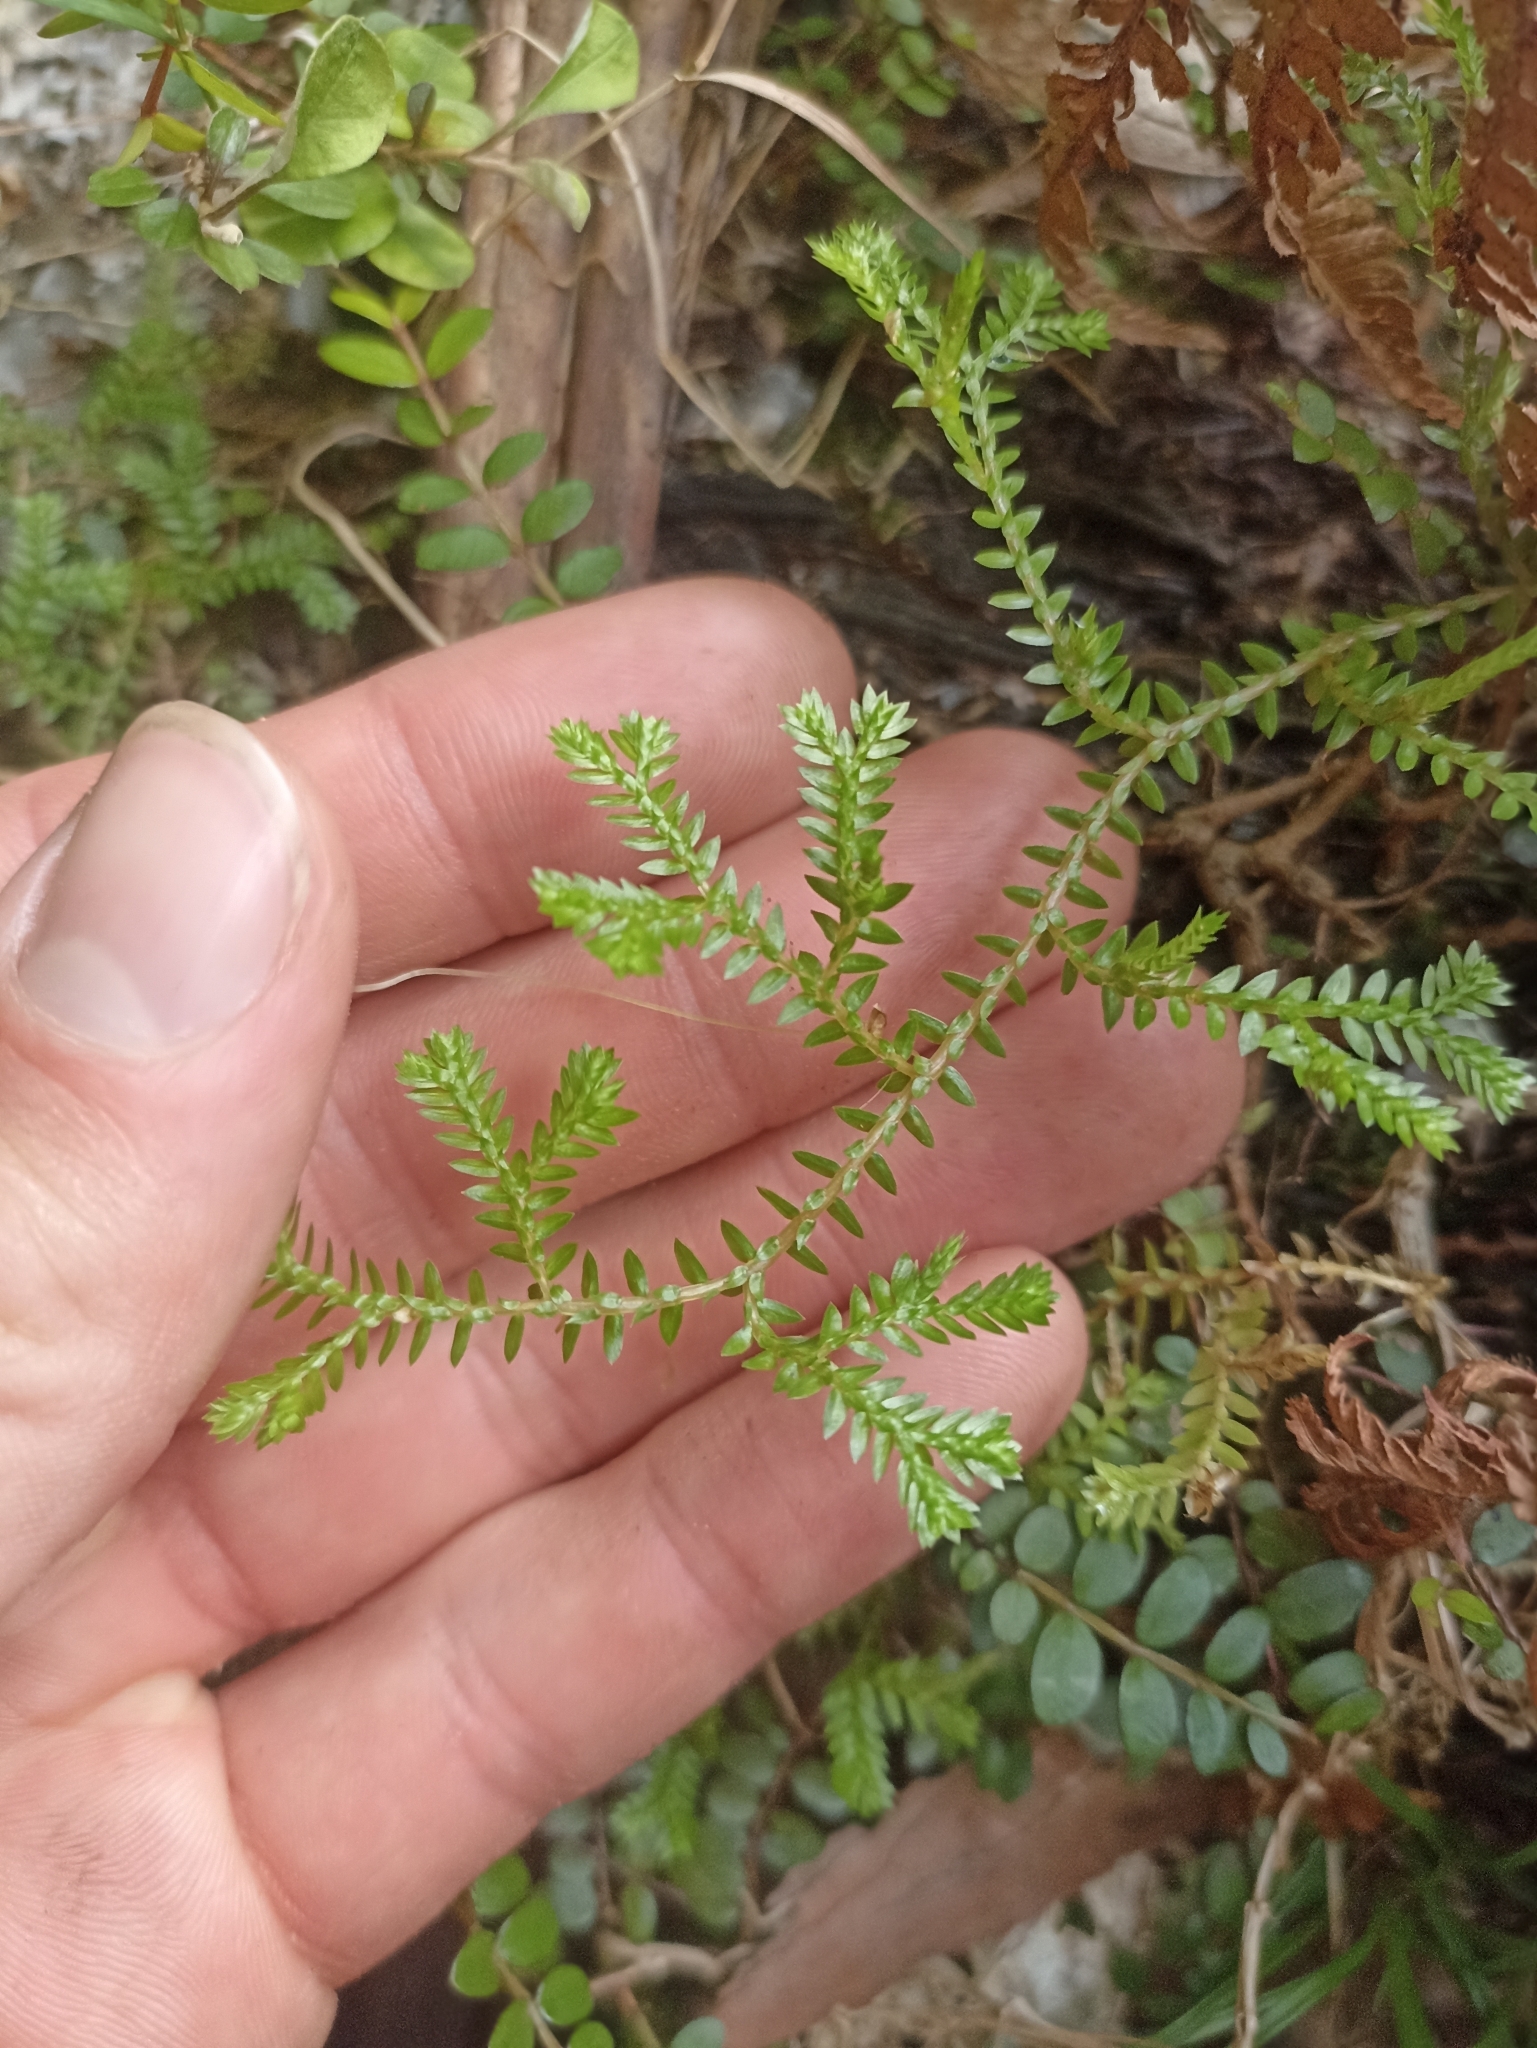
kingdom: Plantae
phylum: Tracheophyta
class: Lycopodiopsida
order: Selaginellales
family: Selaginellaceae
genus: Selaginella
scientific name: Selaginella kraussiana
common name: Krauss' spikemoss
